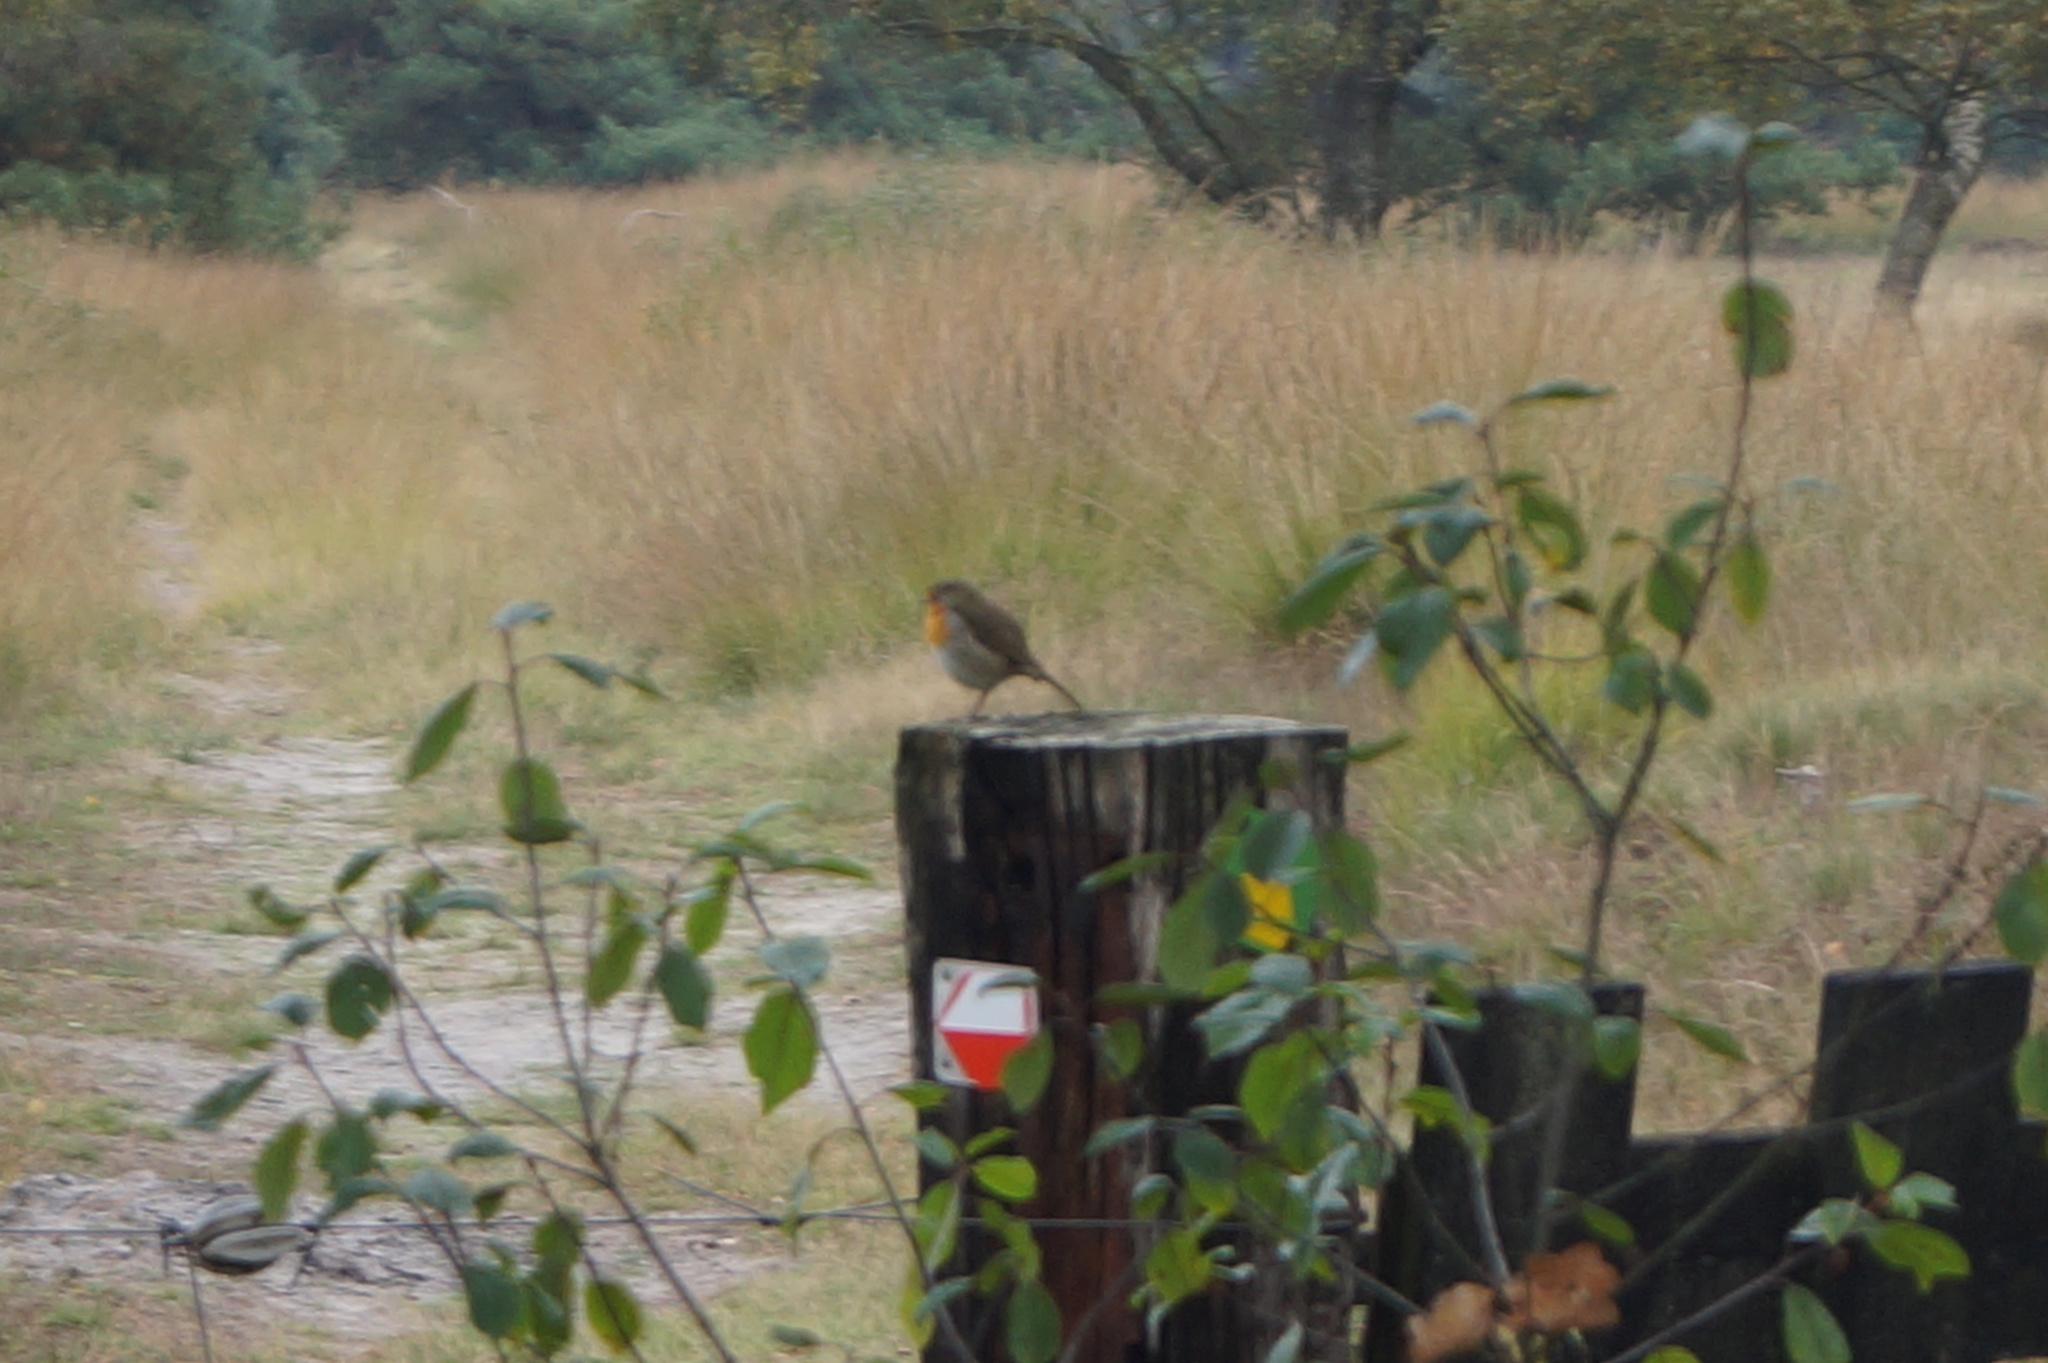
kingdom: Animalia
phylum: Chordata
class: Aves
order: Passeriformes
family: Muscicapidae
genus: Erithacus
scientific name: Erithacus rubecula
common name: European robin
